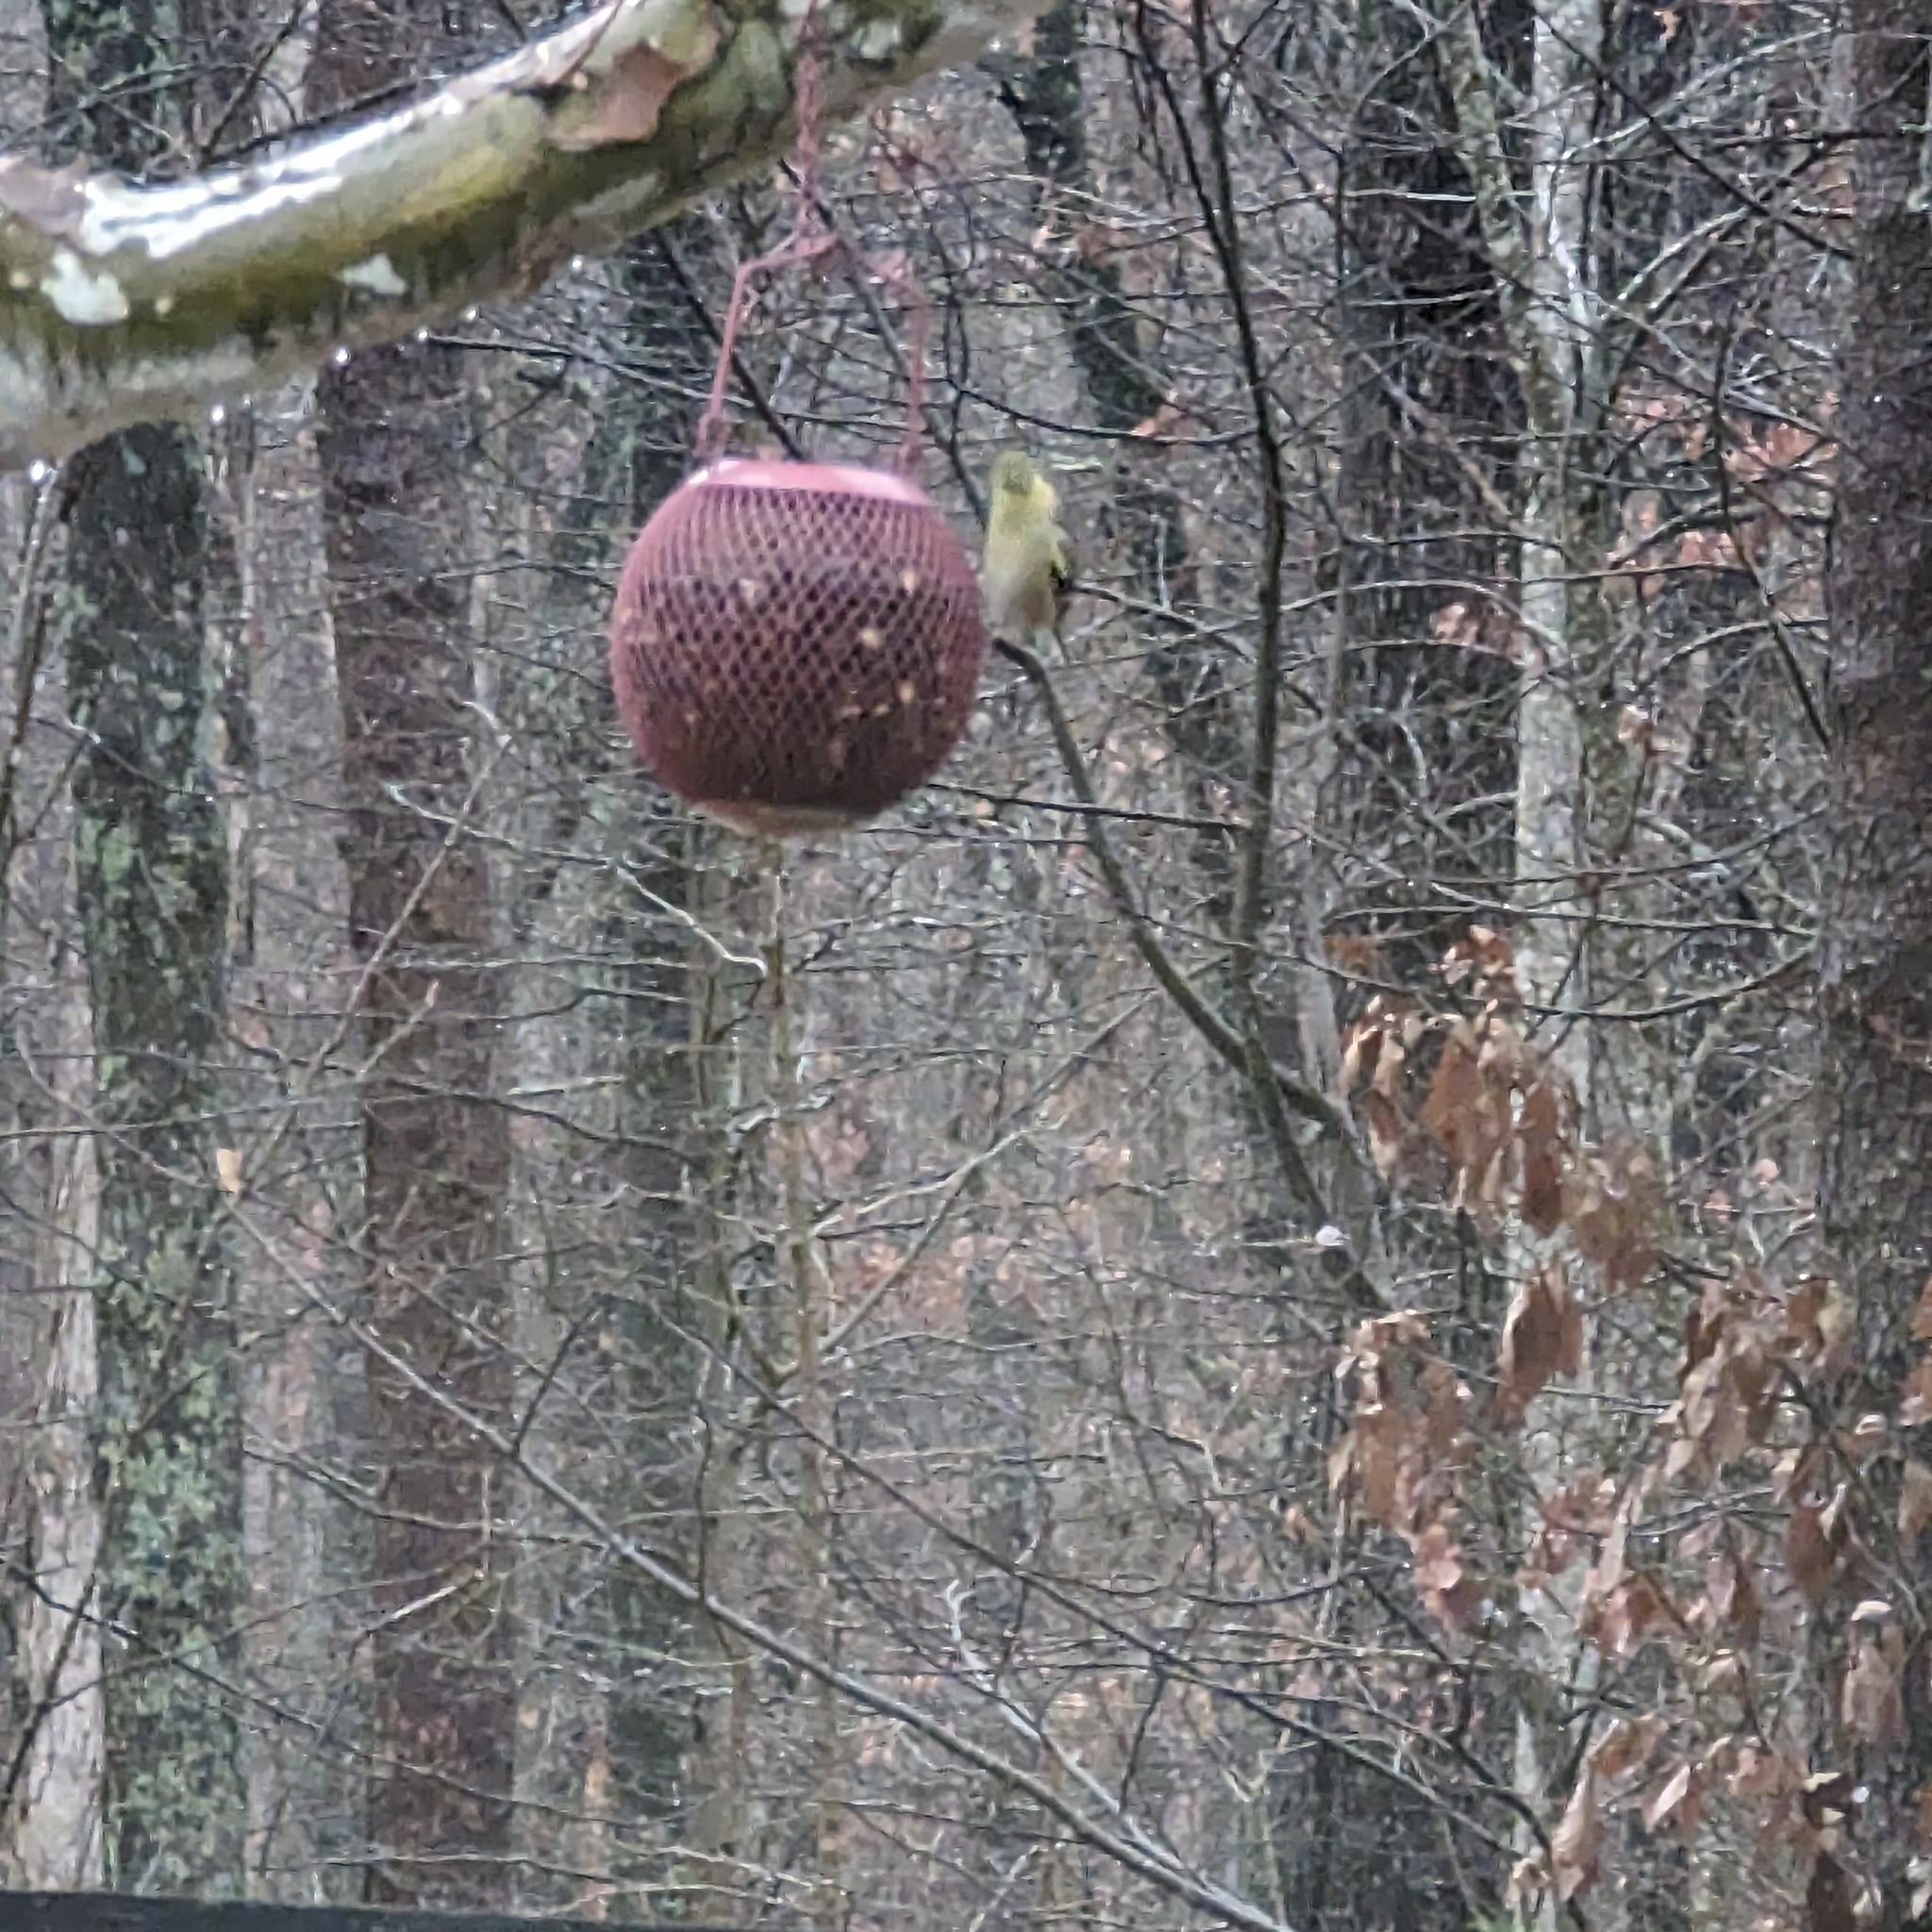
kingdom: Animalia
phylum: Chordata
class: Aves
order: Passeriformes
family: Fringillidae
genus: Spinus
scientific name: Spinus tristis
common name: American goldfinch
